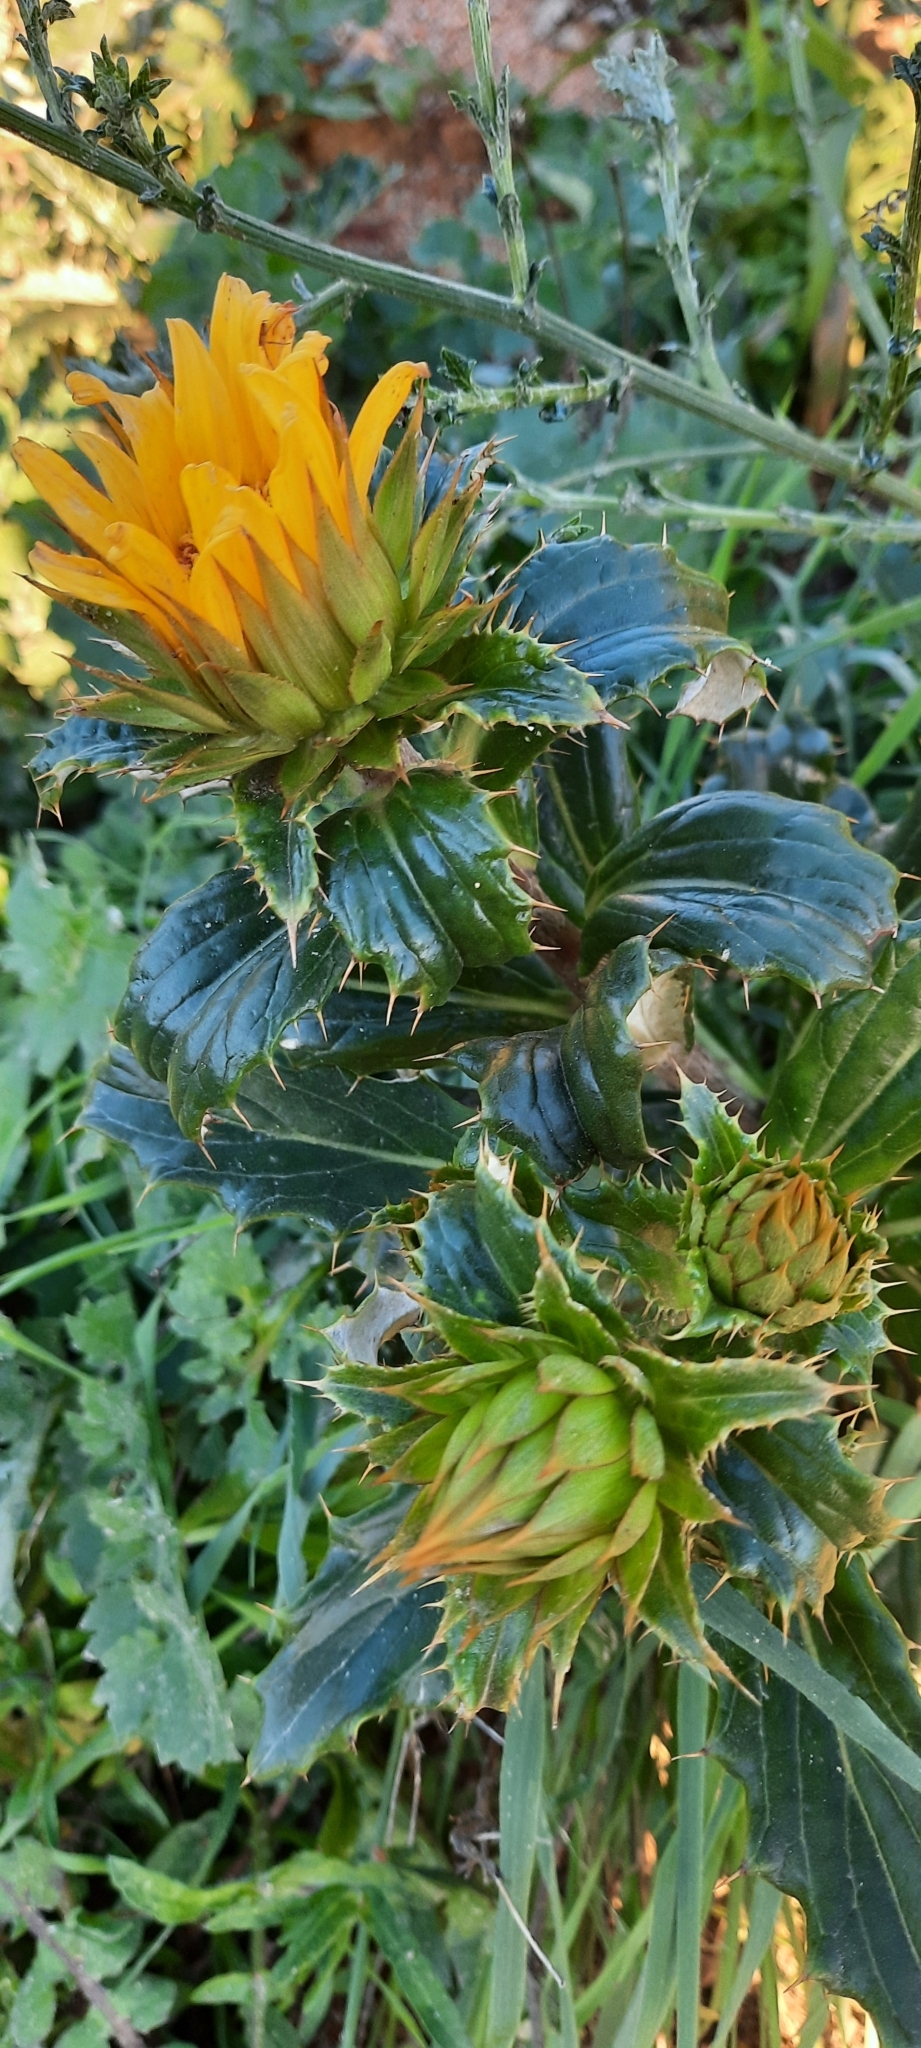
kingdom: Plantae
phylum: Tracheophyta
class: Magnoliopsida
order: Asterales
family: Asteraceae
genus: Berkheya
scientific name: Berkheya armata
